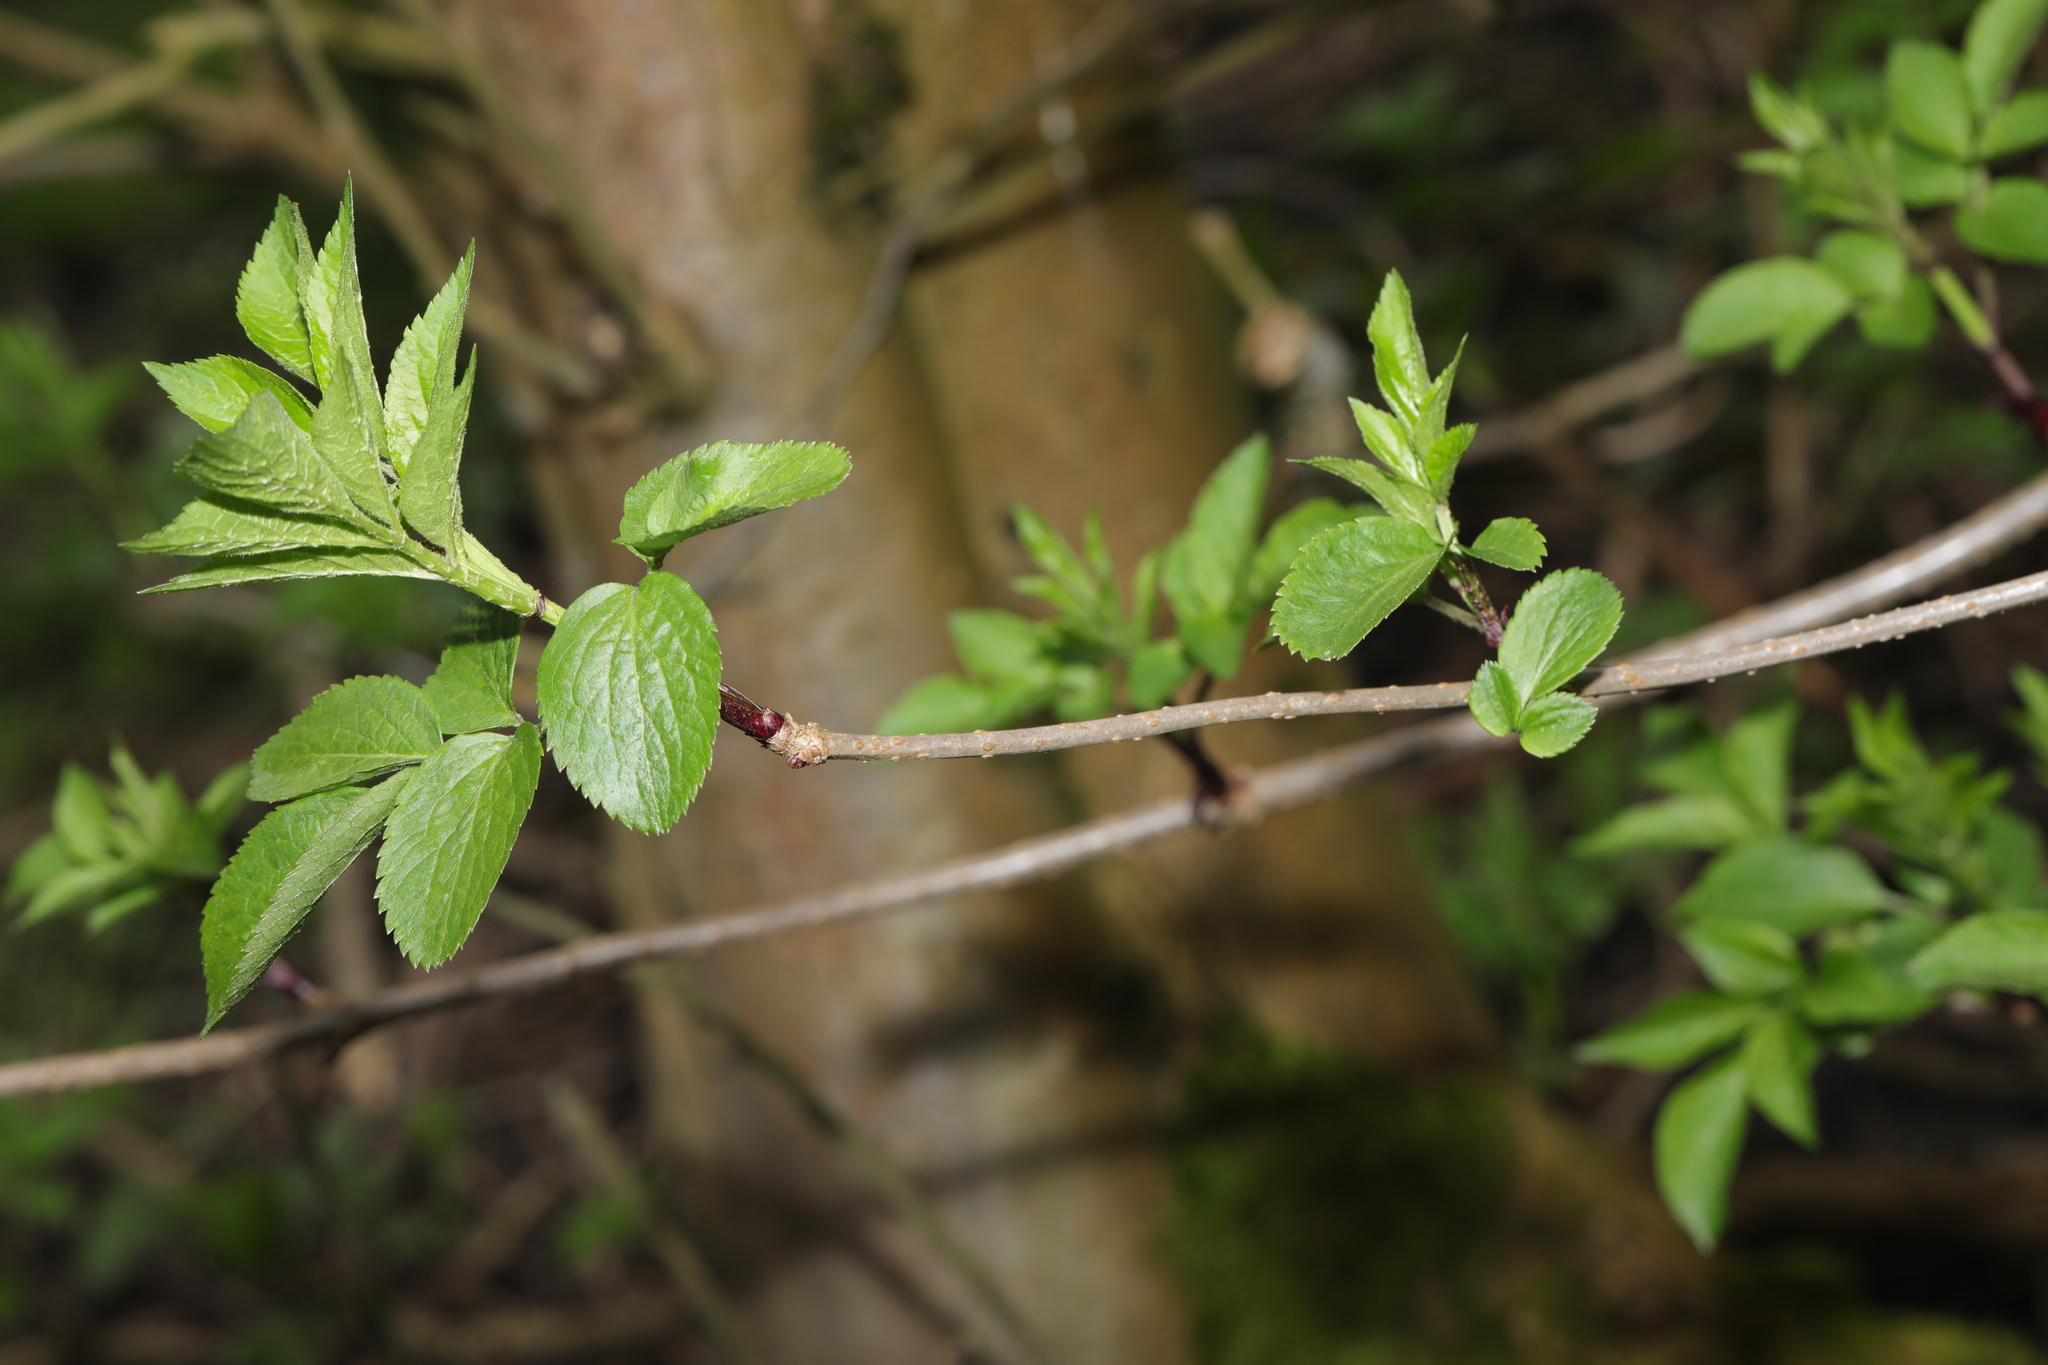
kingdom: Plantae
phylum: Tracheophyta
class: Magnoliopsida
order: Dipsacales
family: Viburnaceae
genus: Sambucus
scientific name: Sambucus nigra
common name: Elder
